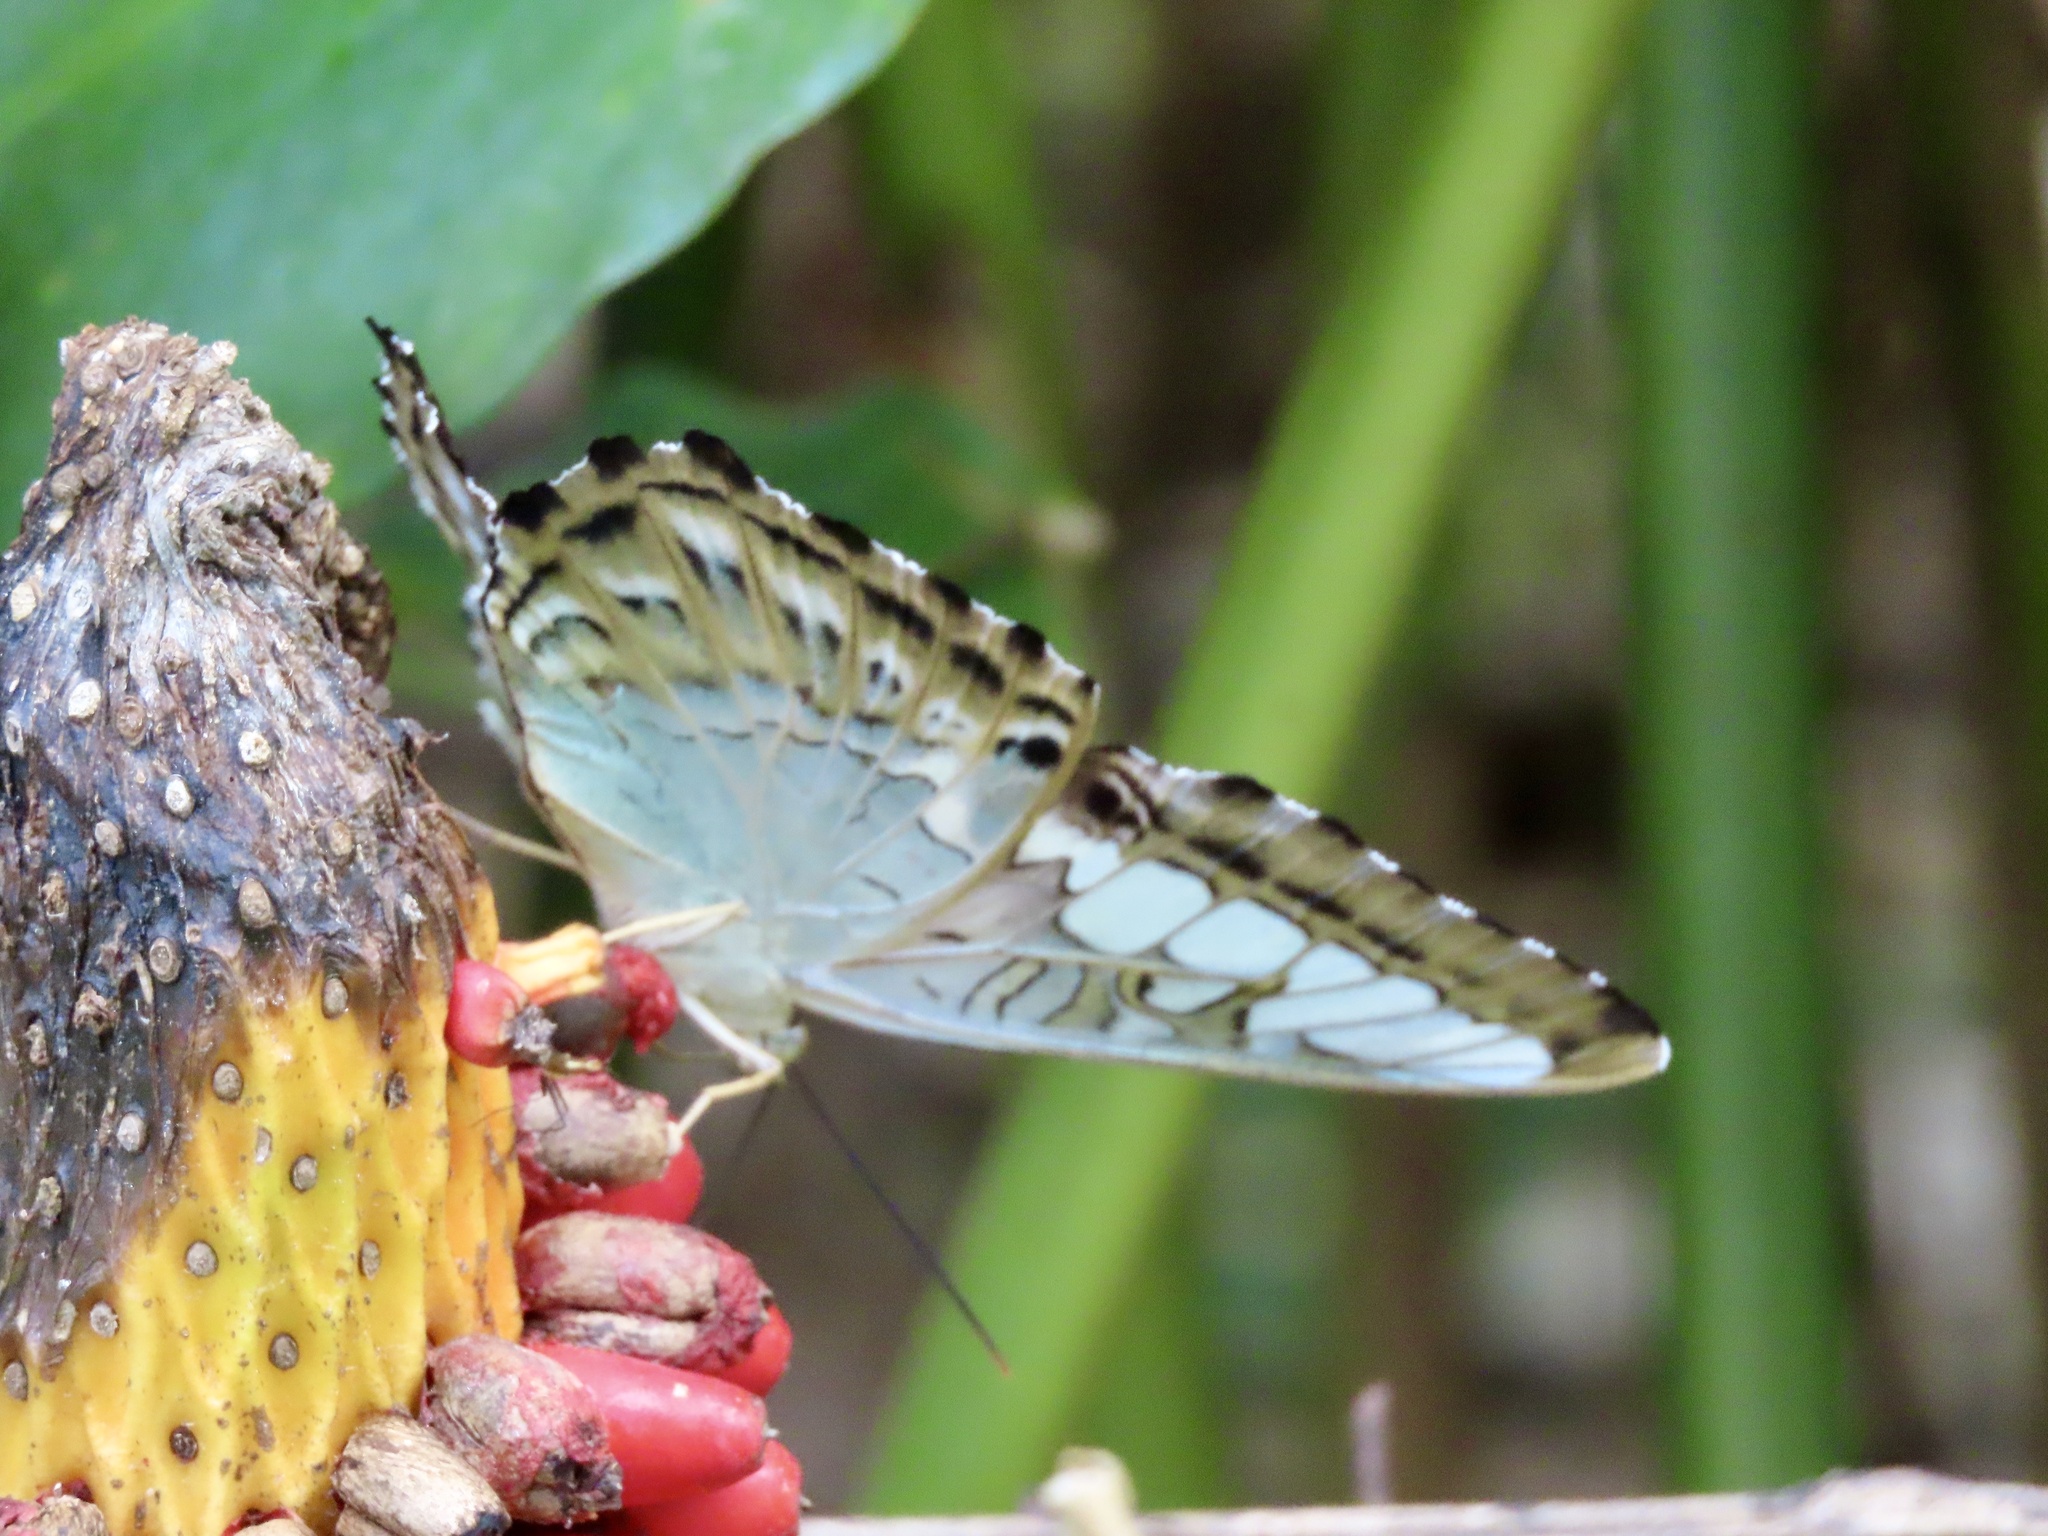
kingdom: Animalia
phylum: Arthropoda
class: Insecta
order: Lepidoptera
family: Nymphalidae
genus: Kallima
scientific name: Kallima sylvia
